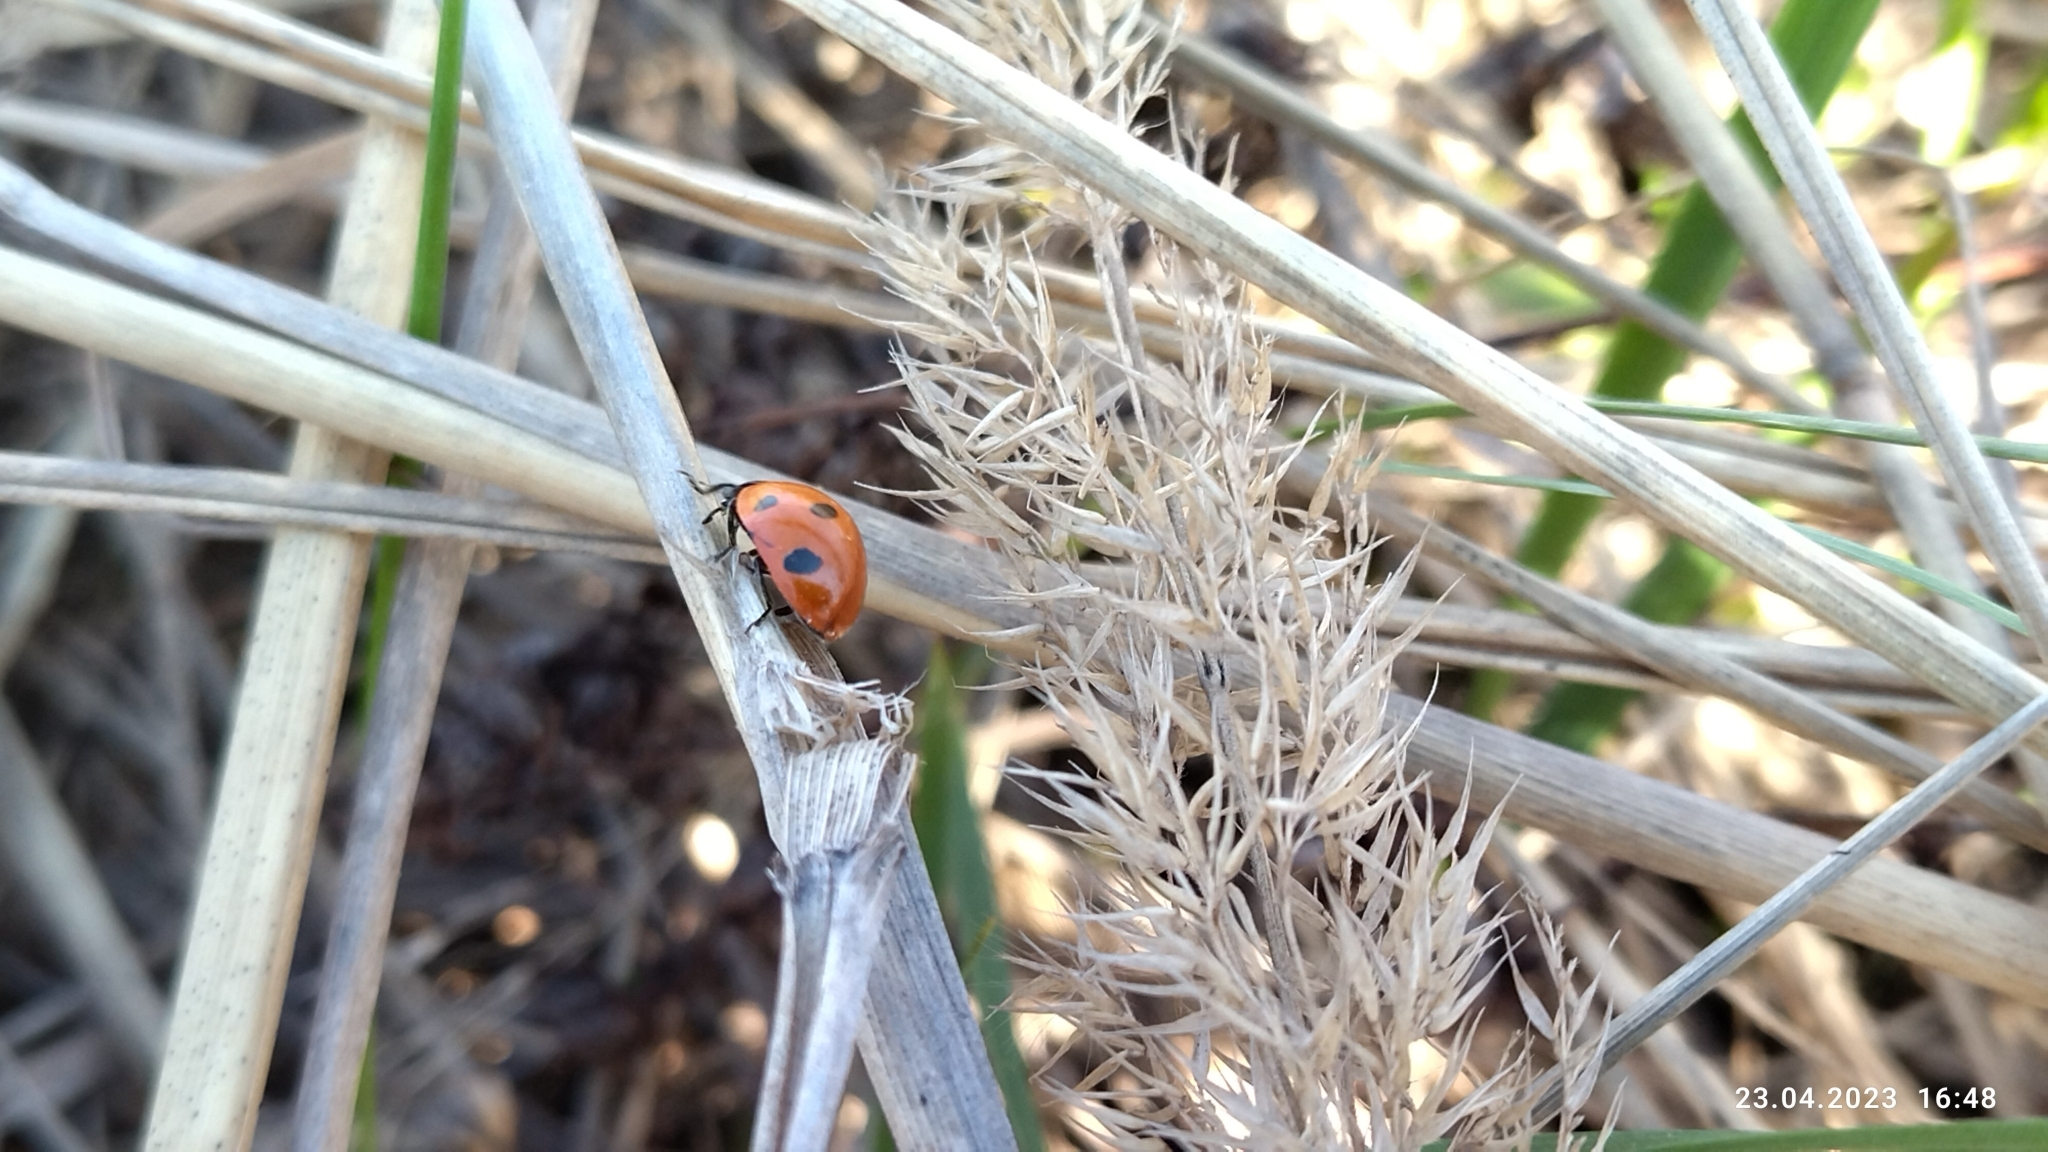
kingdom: Animalia
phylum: Arthropoda
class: Insecta
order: Coleoptera
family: Coccinellidae
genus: Coccinella
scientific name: Coccinella septempunctata
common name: Sevenspotted lady beetle
